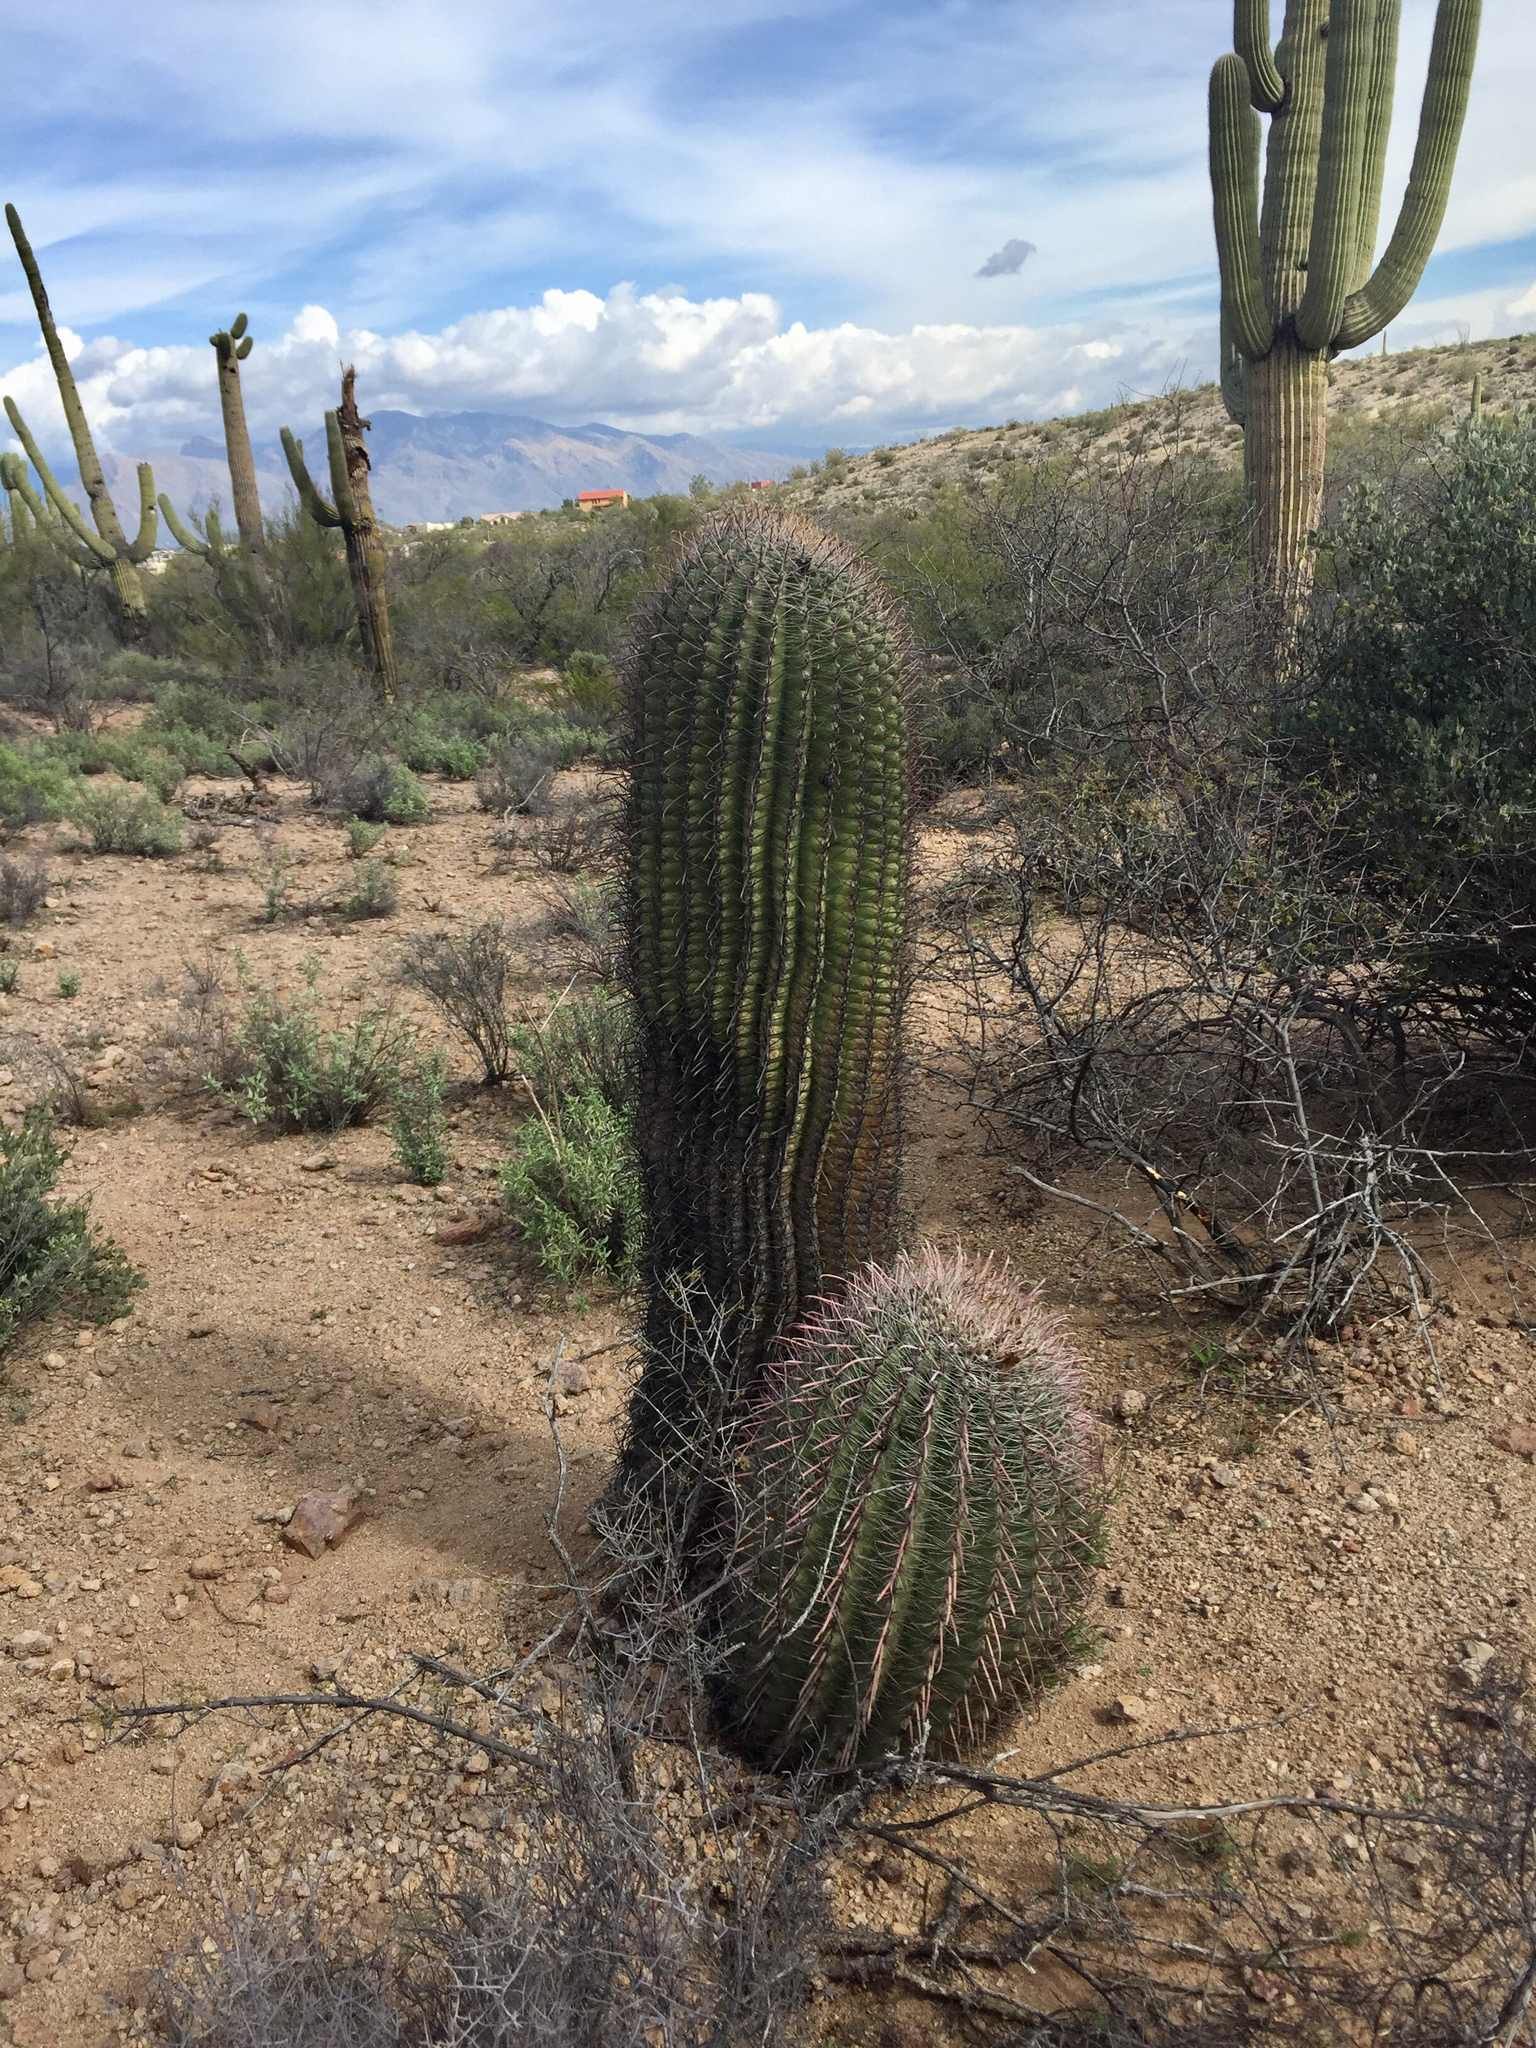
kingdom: Plantae
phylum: Tracheophyta
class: Magnoliopsida
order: Caryophyllales
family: Cactaceae
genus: Ferocactus
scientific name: Ferocactus wislizeni
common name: Candy barrel cactus
